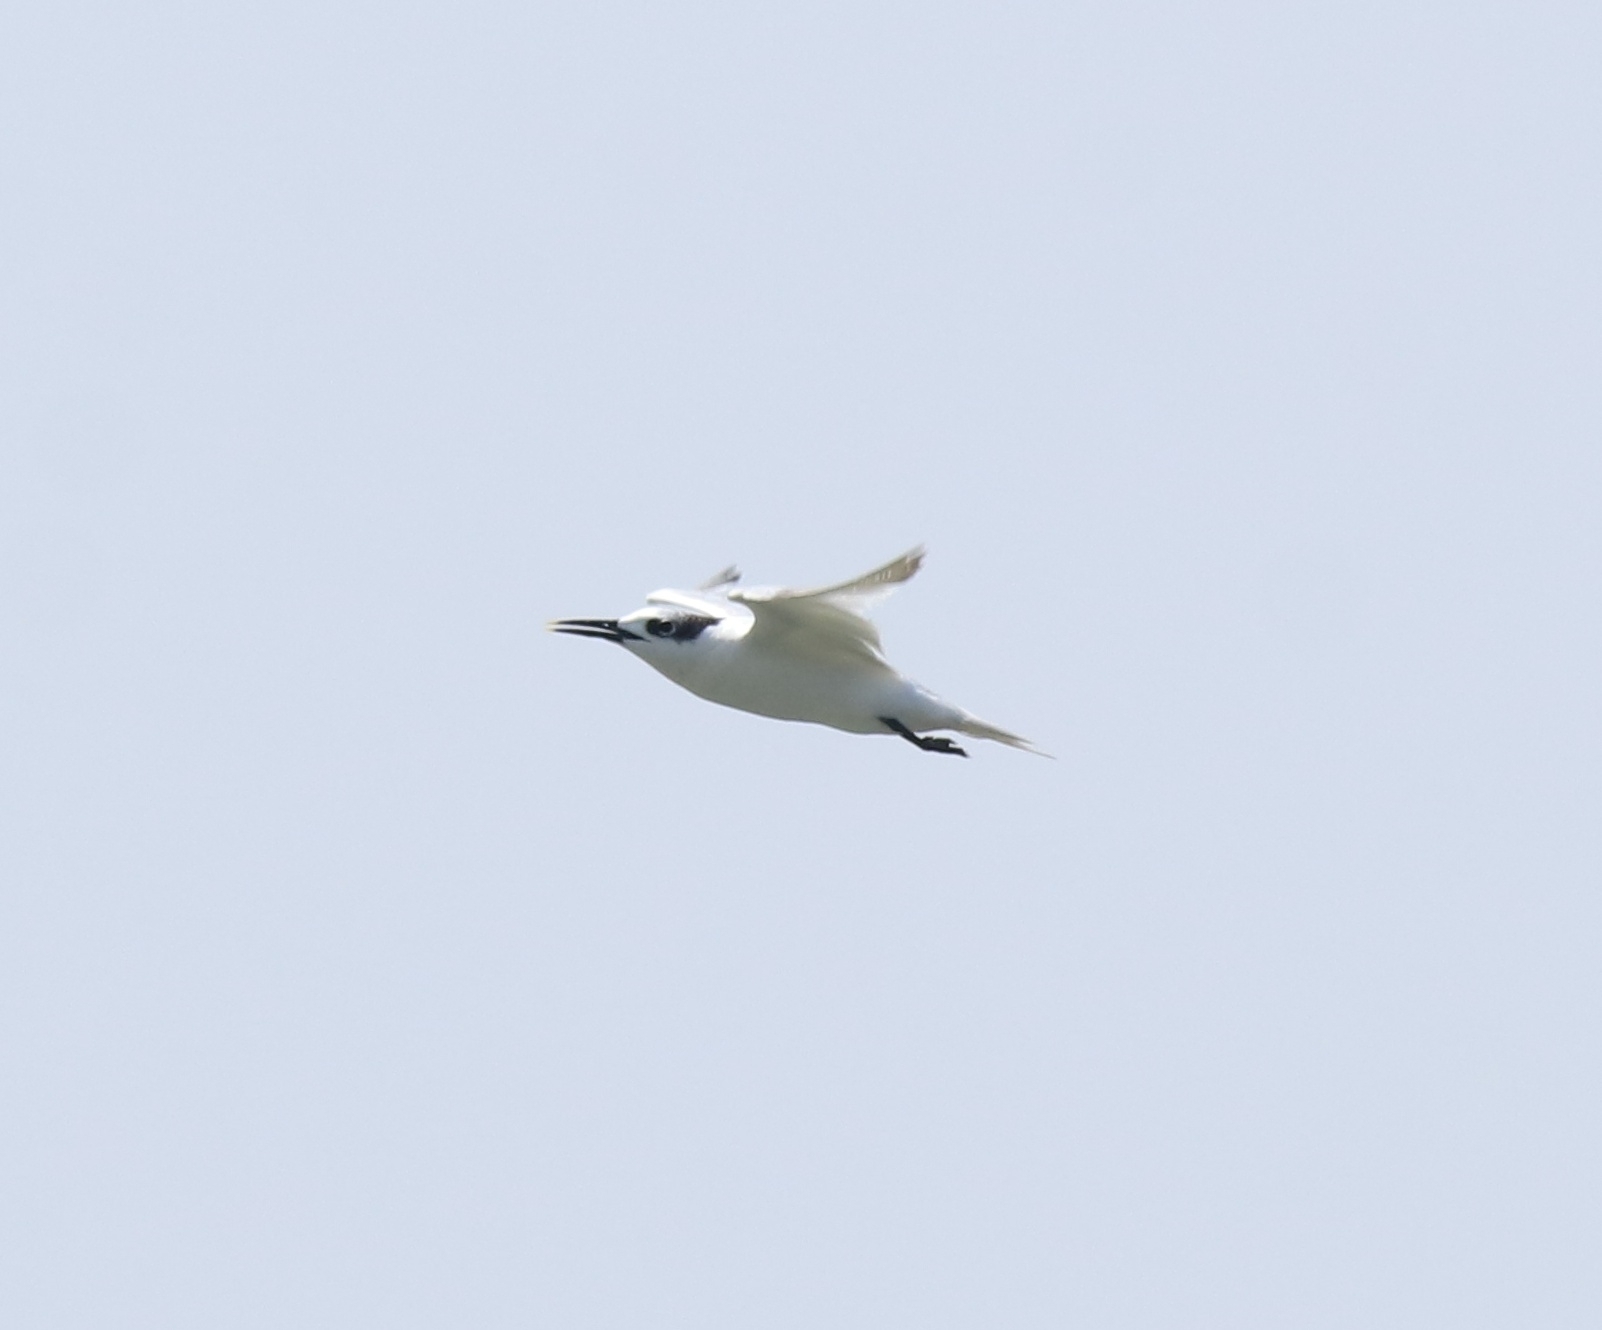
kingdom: Animalia
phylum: Chordata
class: Aves
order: Charadriiformes
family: Laridae
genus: Thalasseus
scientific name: Thalasseus sandvicensis
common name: Sandwich tern
